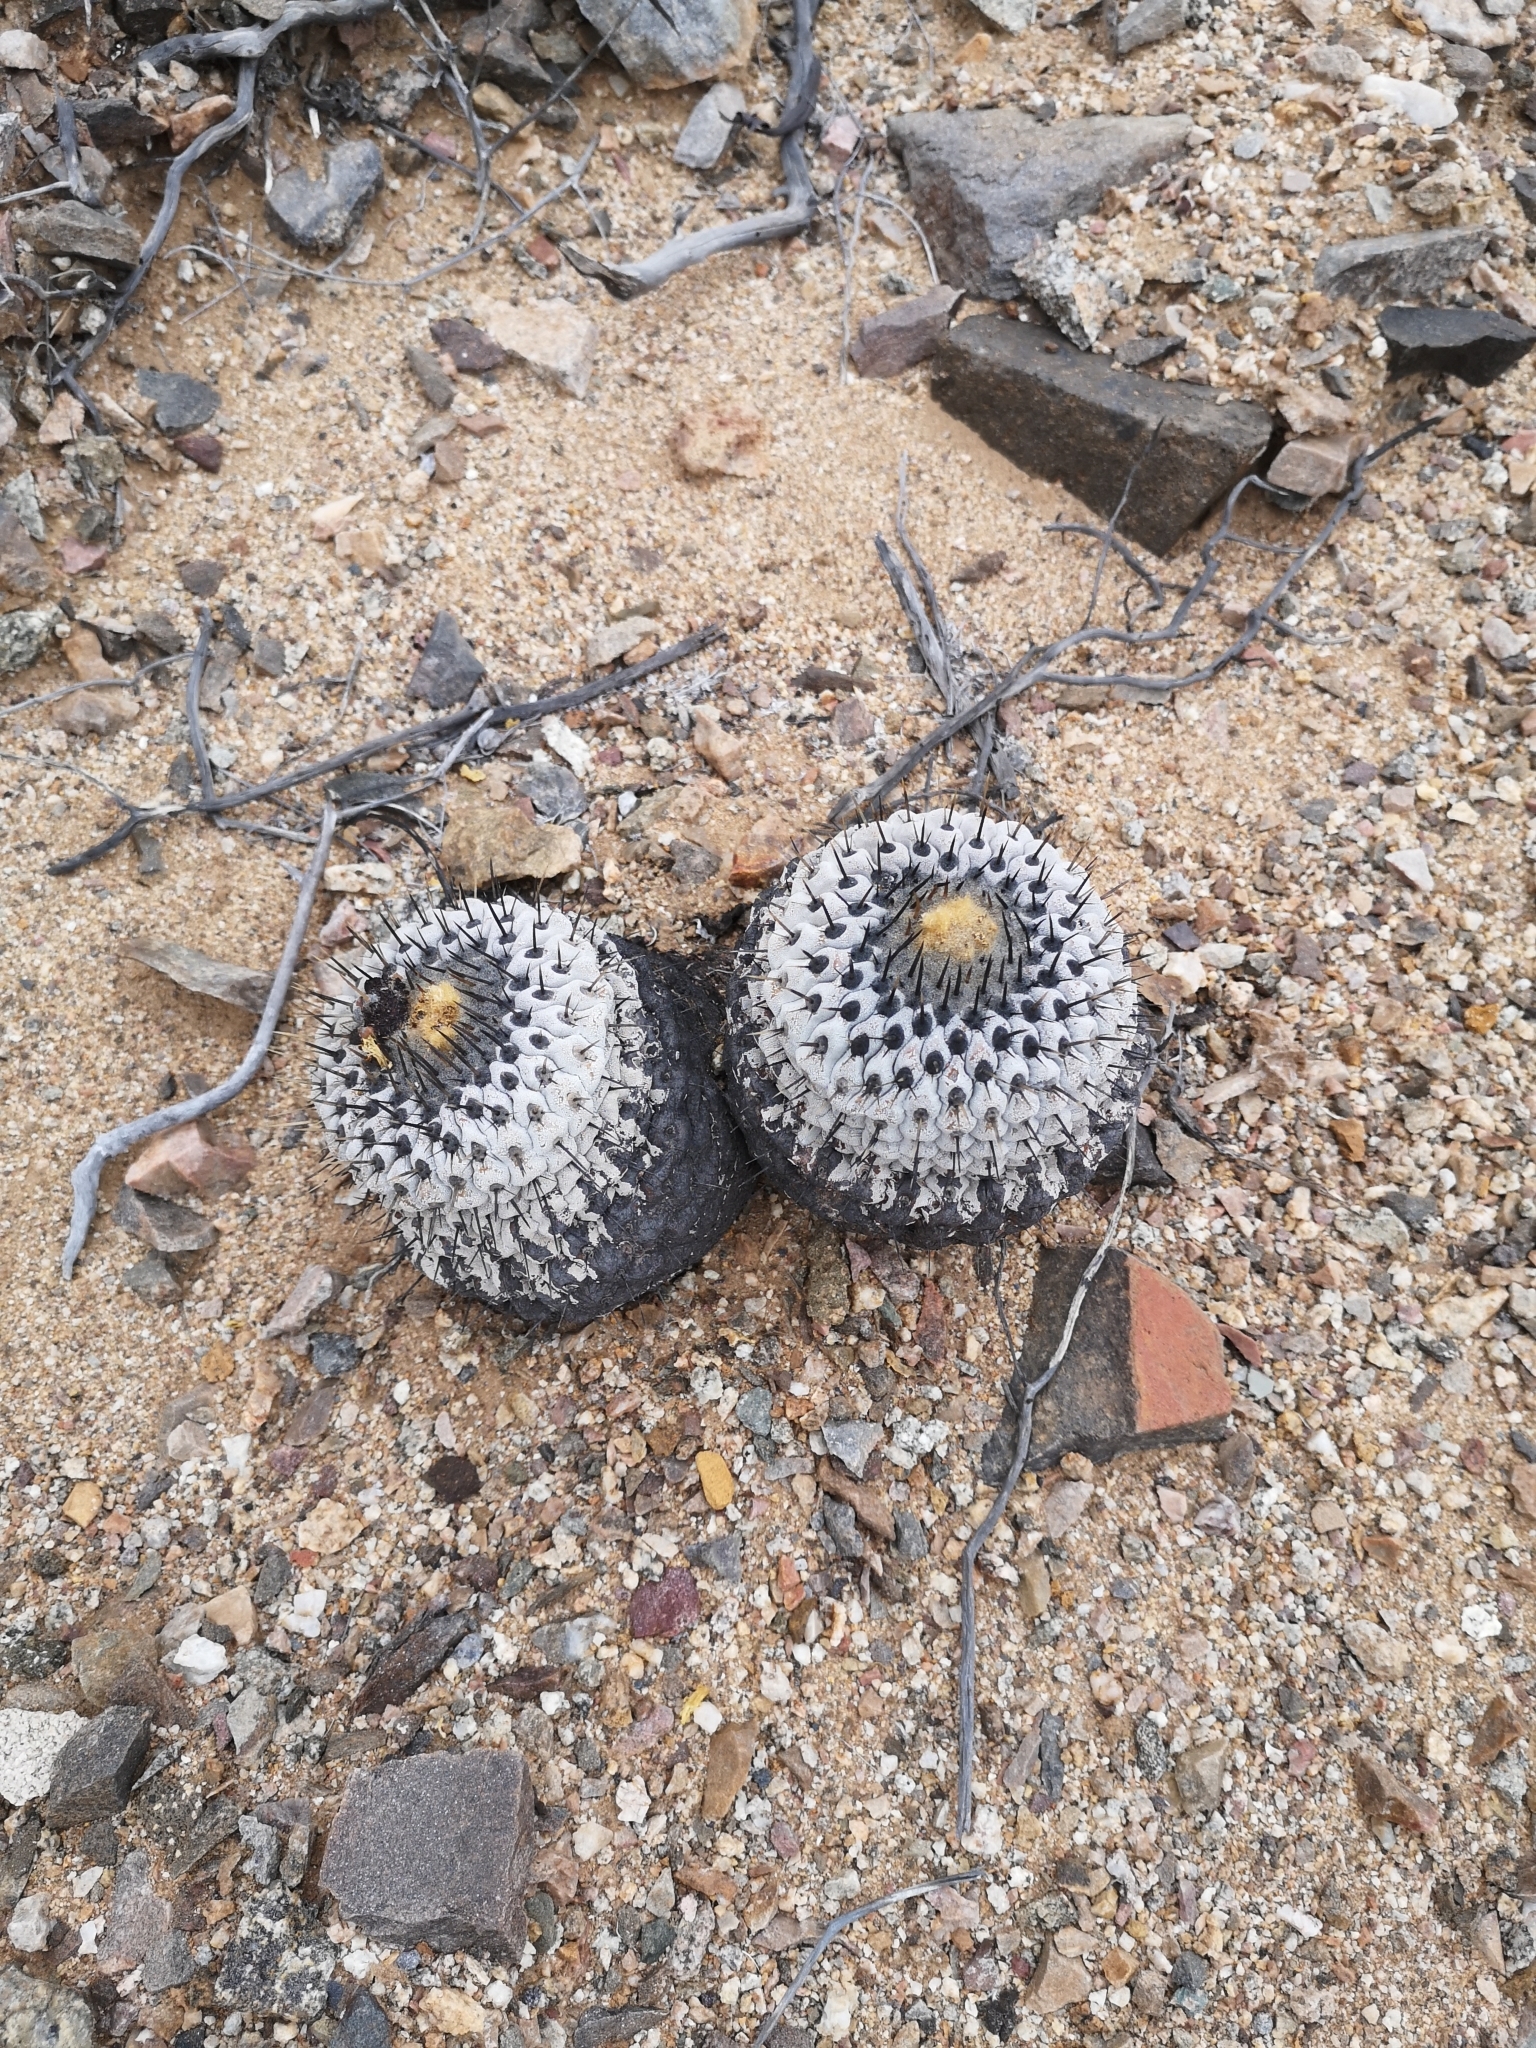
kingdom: Plantae
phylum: Tracheophyta
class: Magnoliopsida
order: Caryophyllales
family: Cactaceae
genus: Copiapoa
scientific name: Copiapoa cinerea
